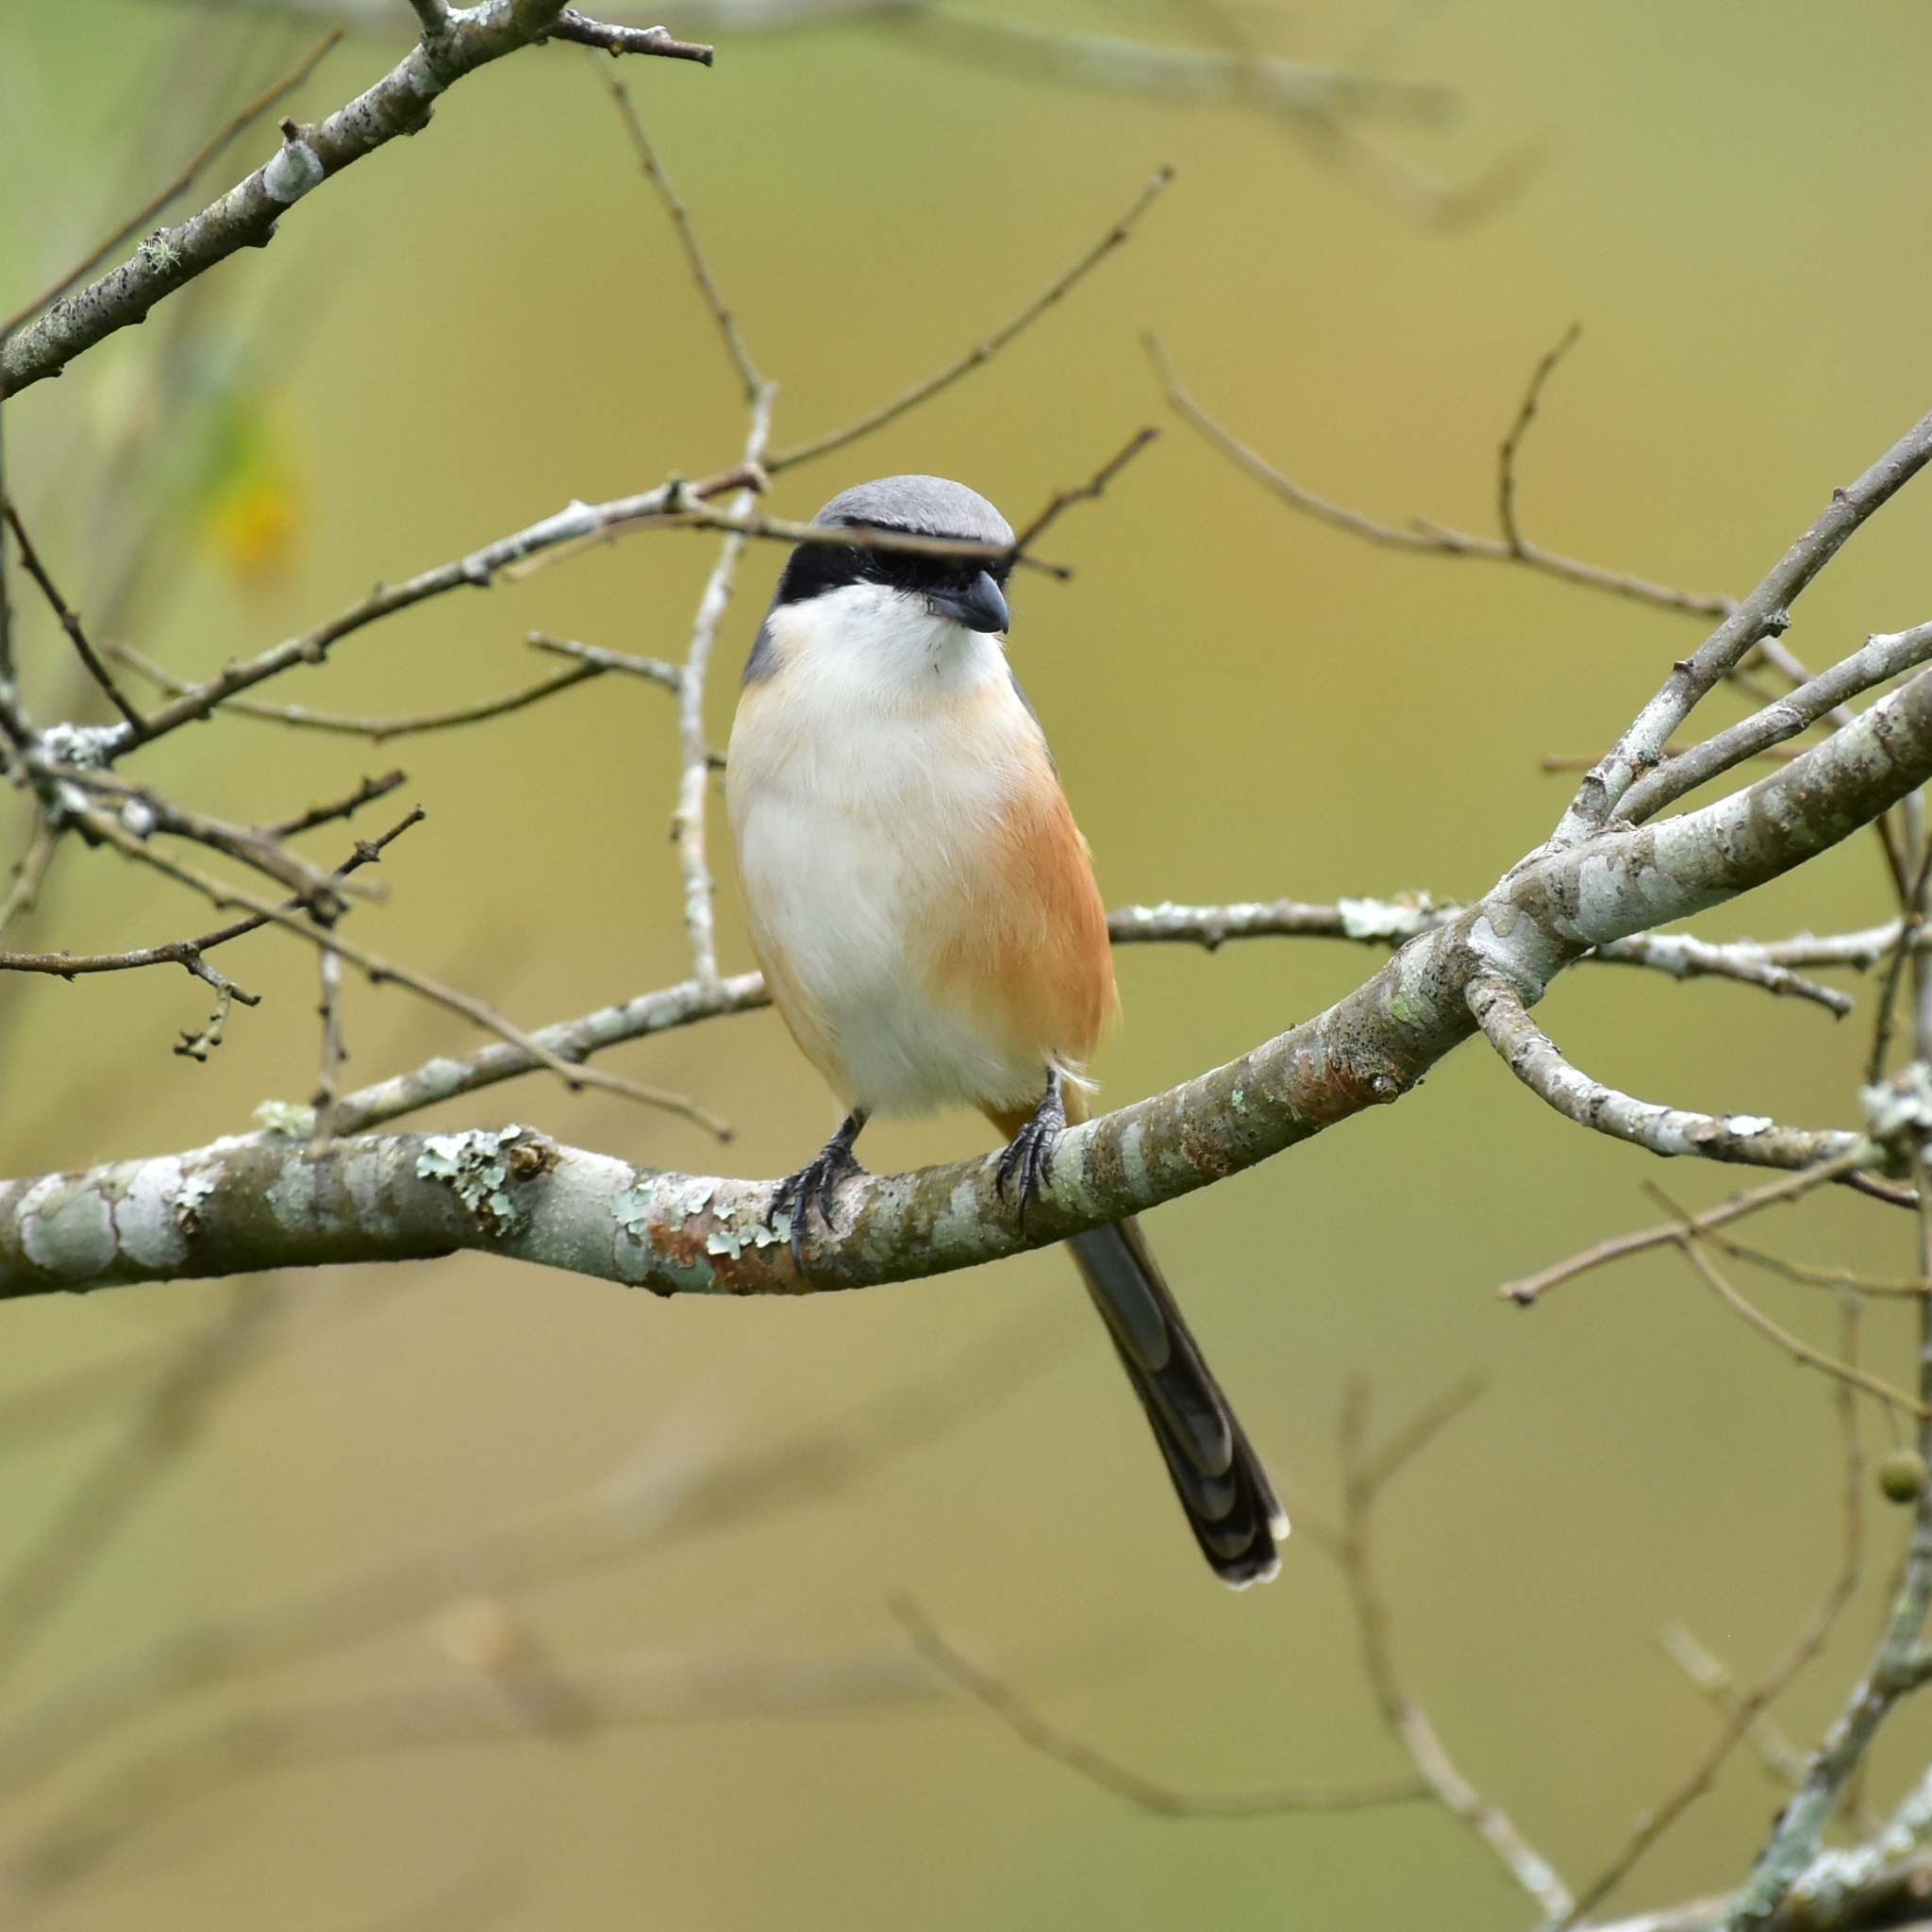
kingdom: Animalia
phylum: Chordata
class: Aves
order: Passeriformes
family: Laniidae
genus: Lanius
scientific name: Lanius schach
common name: Long-tailed shrike
